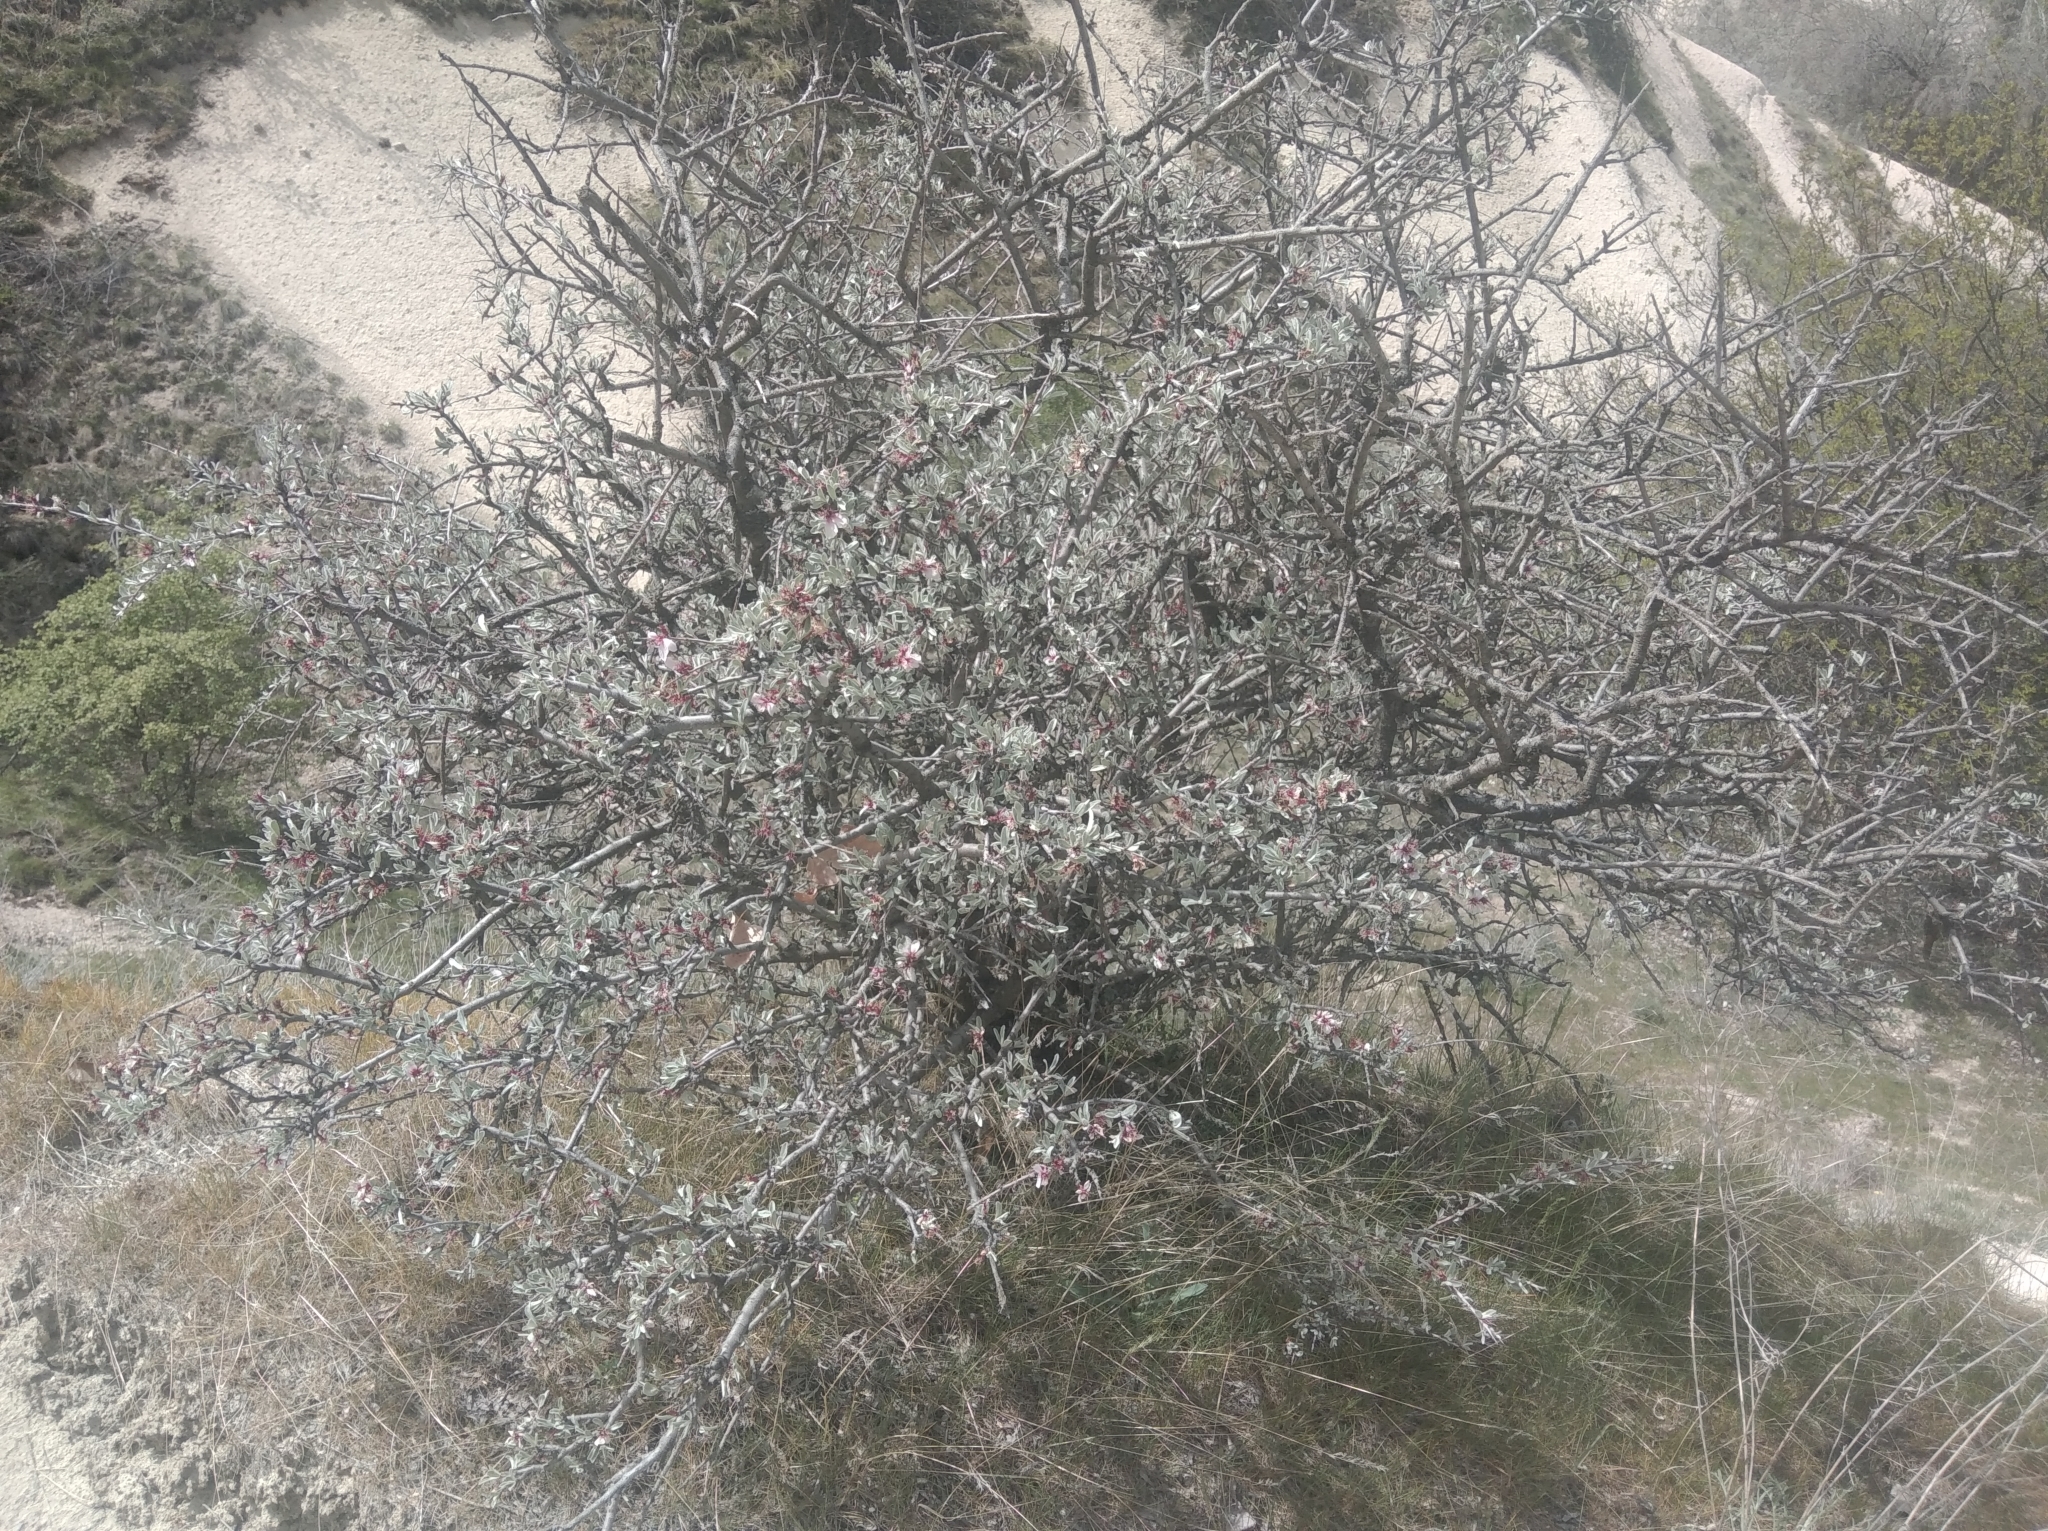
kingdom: Plantae
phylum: Tracheophyta
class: Magnoliopsida
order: Rosales
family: Rosaceae
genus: Prunus
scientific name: Prunus argentea
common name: Silver almond
